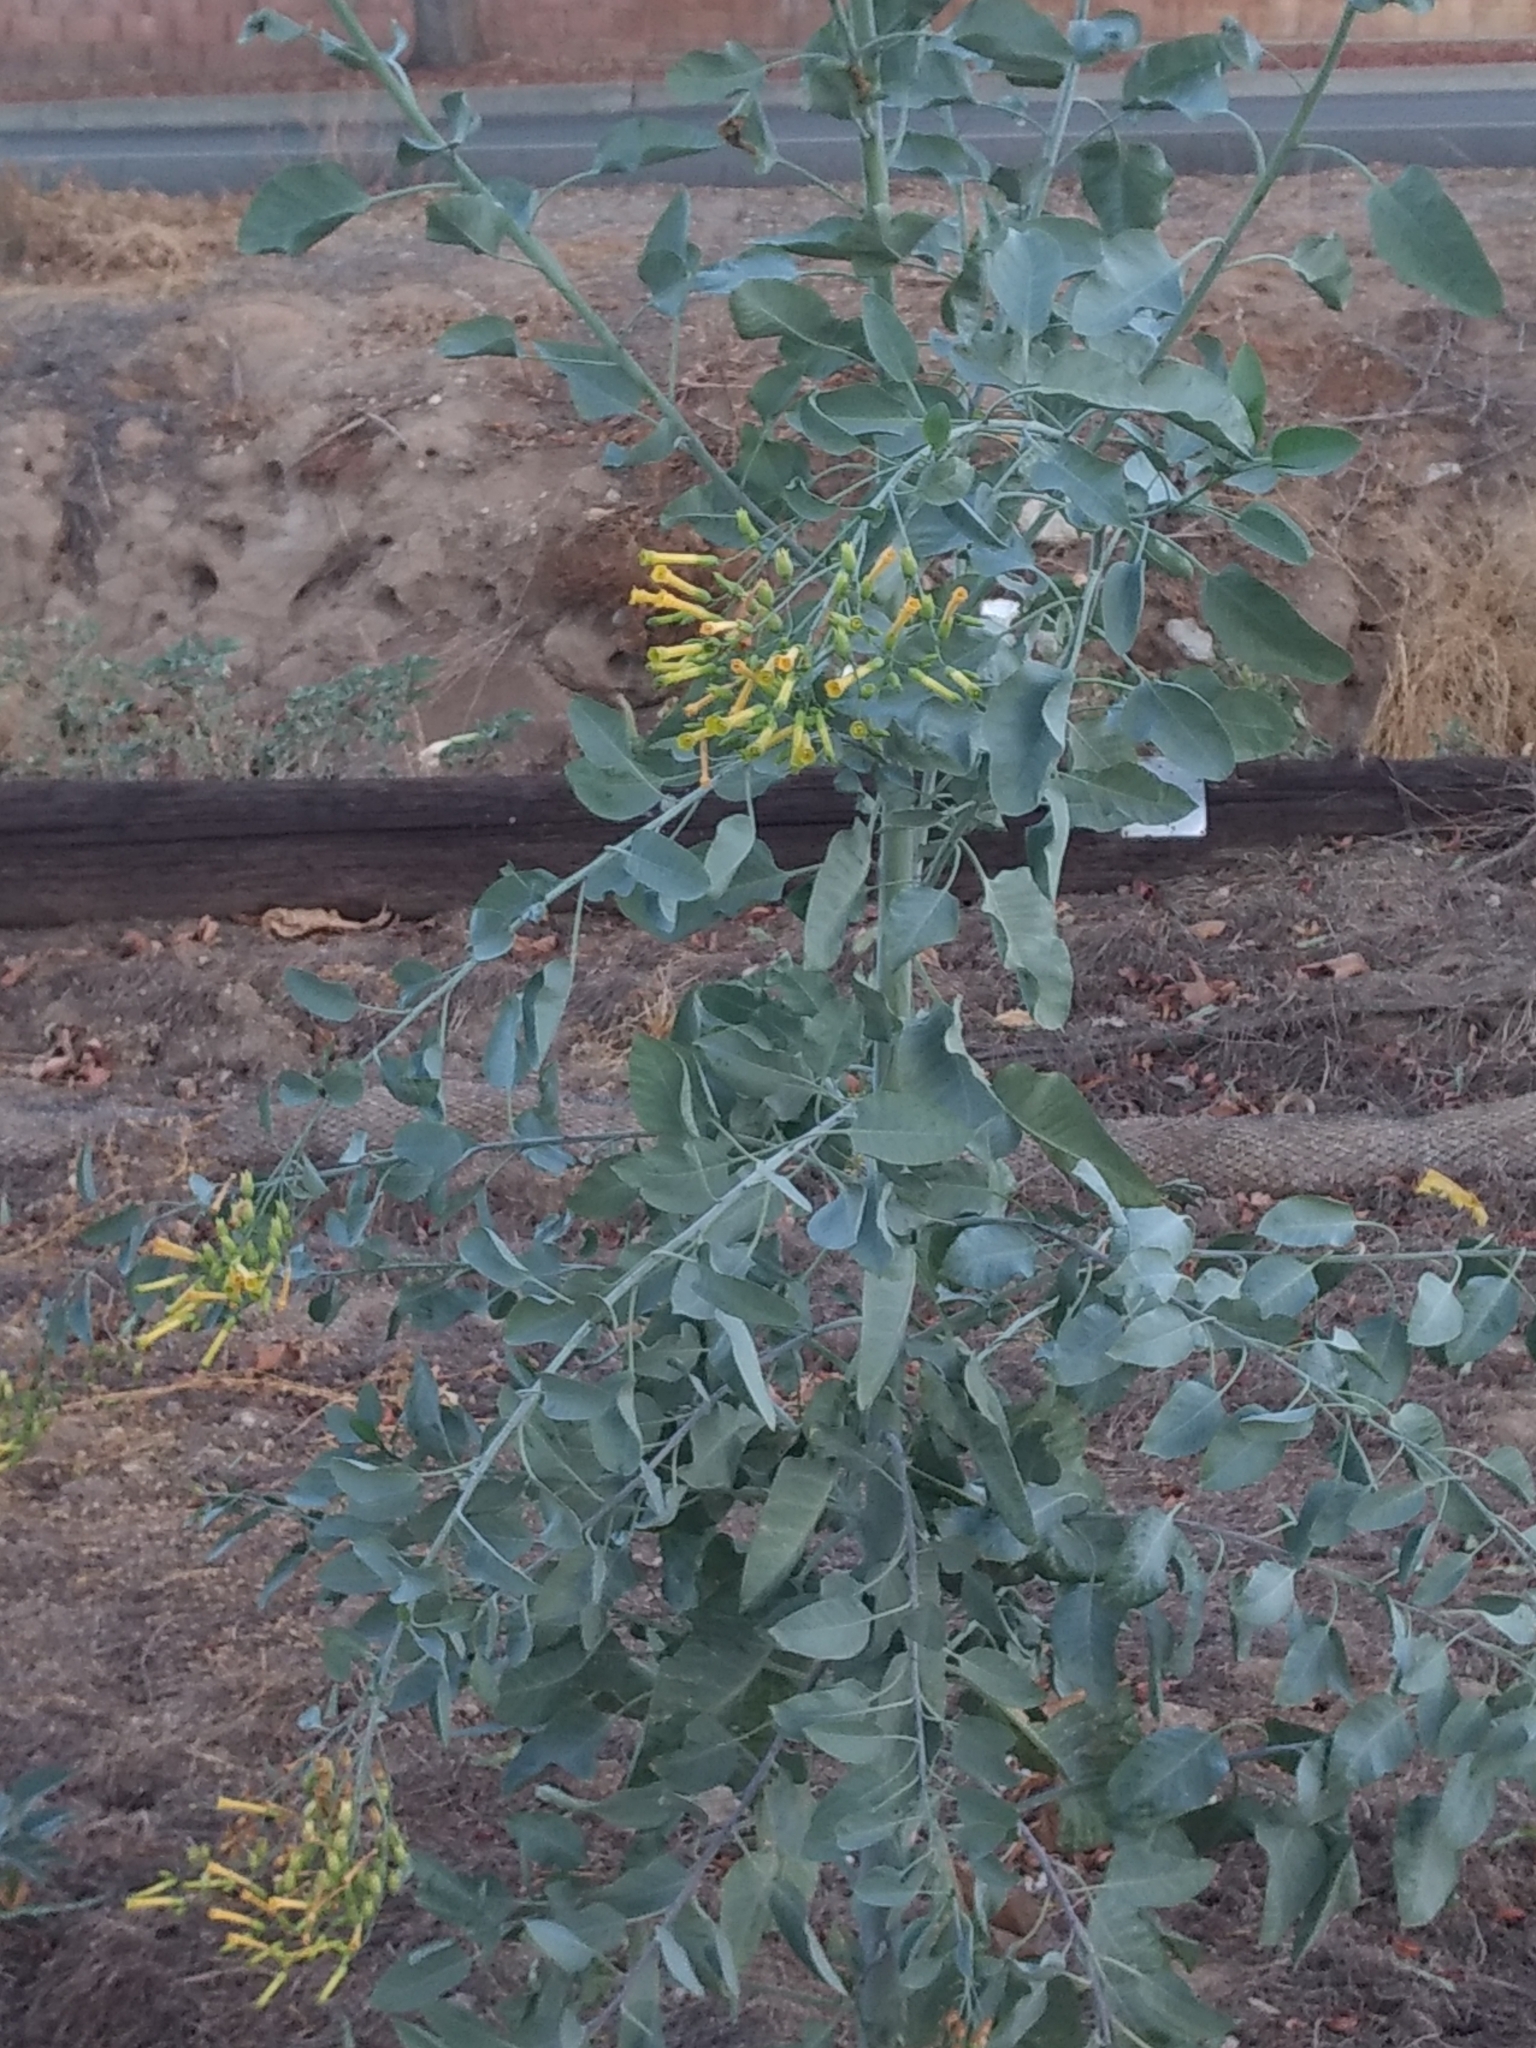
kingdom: Plantae
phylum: Tracheophyta
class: Magnoliopsida
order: Solanales
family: Solanaceae
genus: Nicotiana
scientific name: Nicotiana glauca
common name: Tree tobacco
